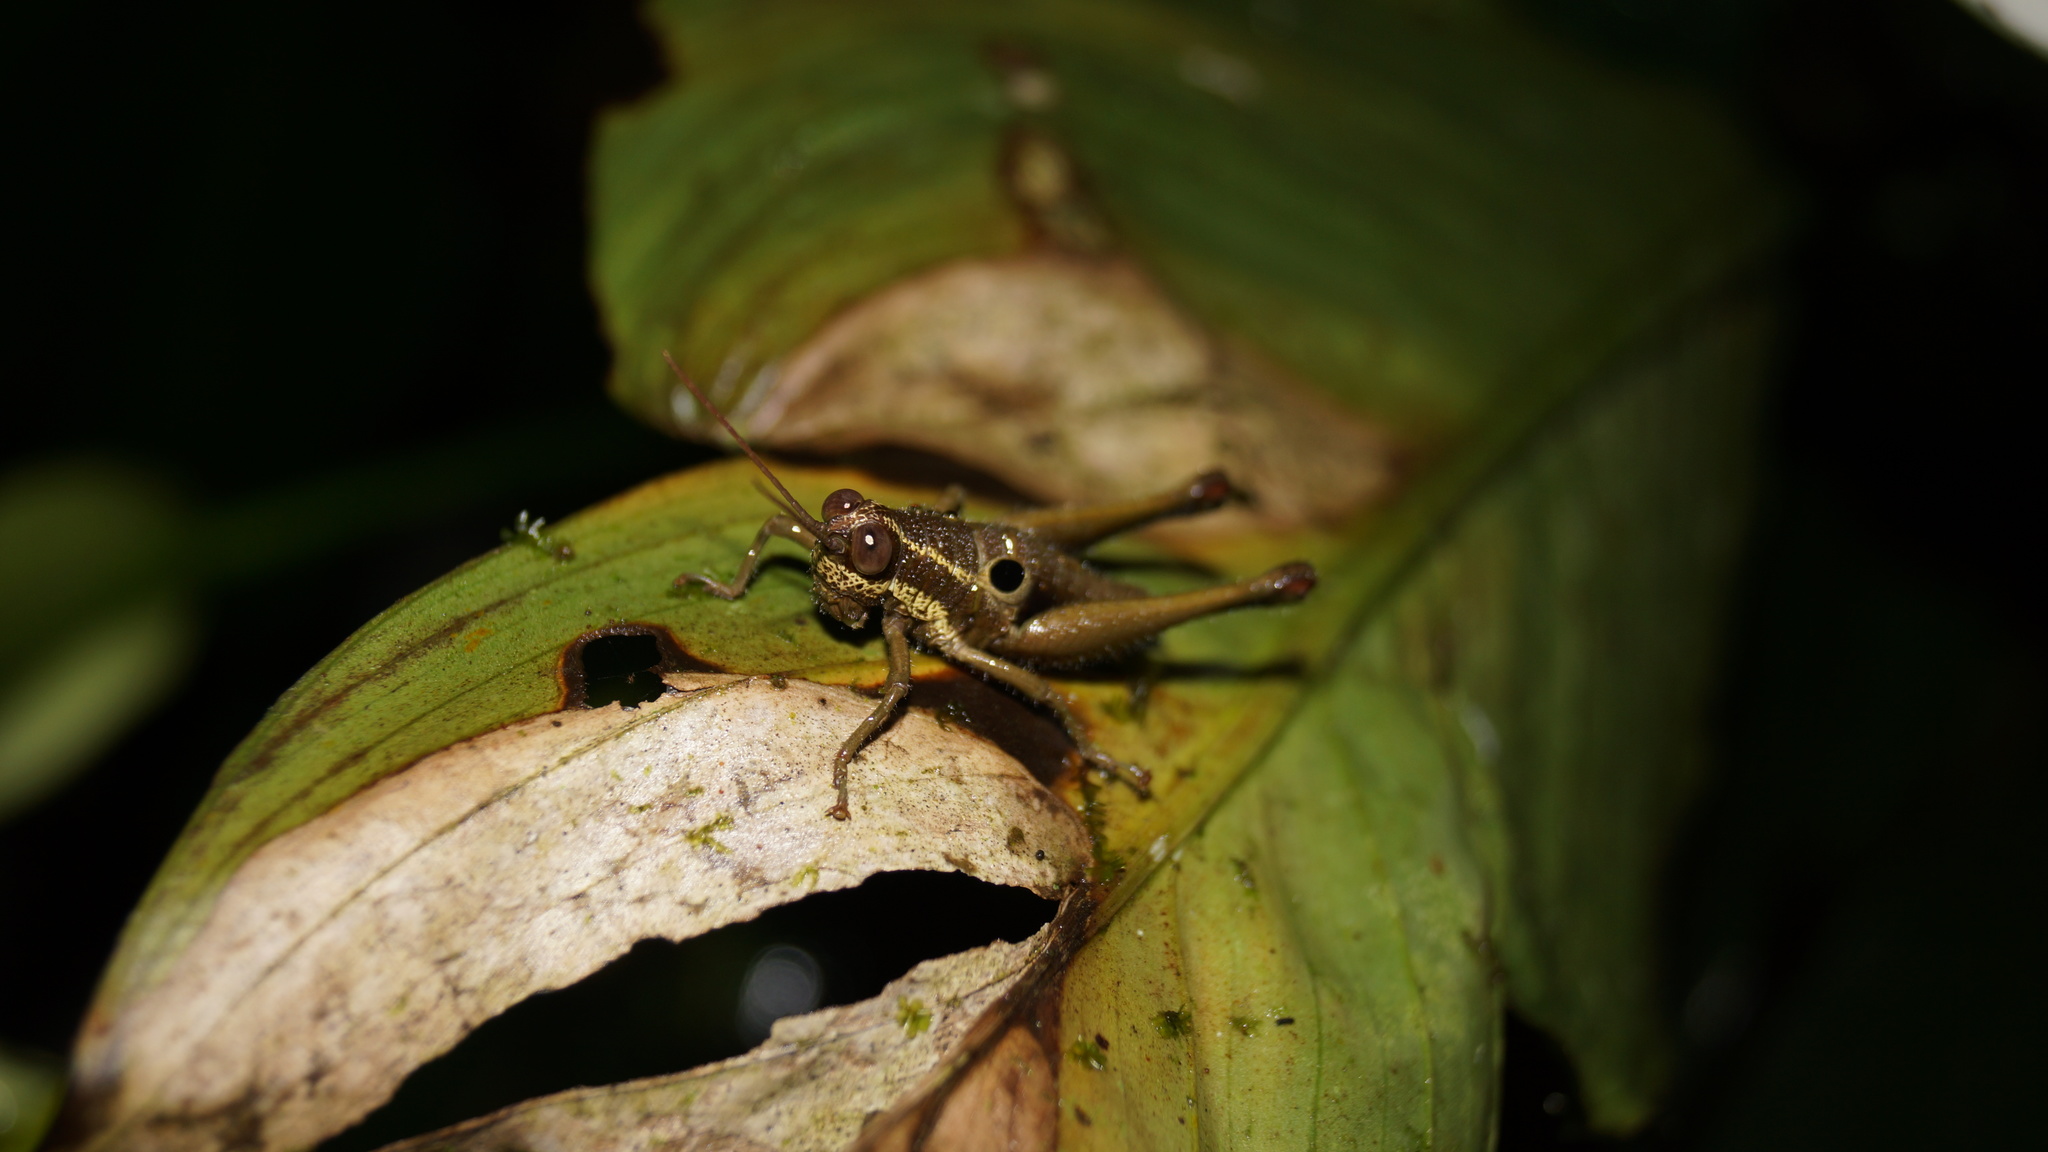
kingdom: Animalia
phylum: Arthropoda
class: Insecta
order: Orthoptera
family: Acrididae
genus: Ommatolampis
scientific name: Ommatolampis perspicillata
